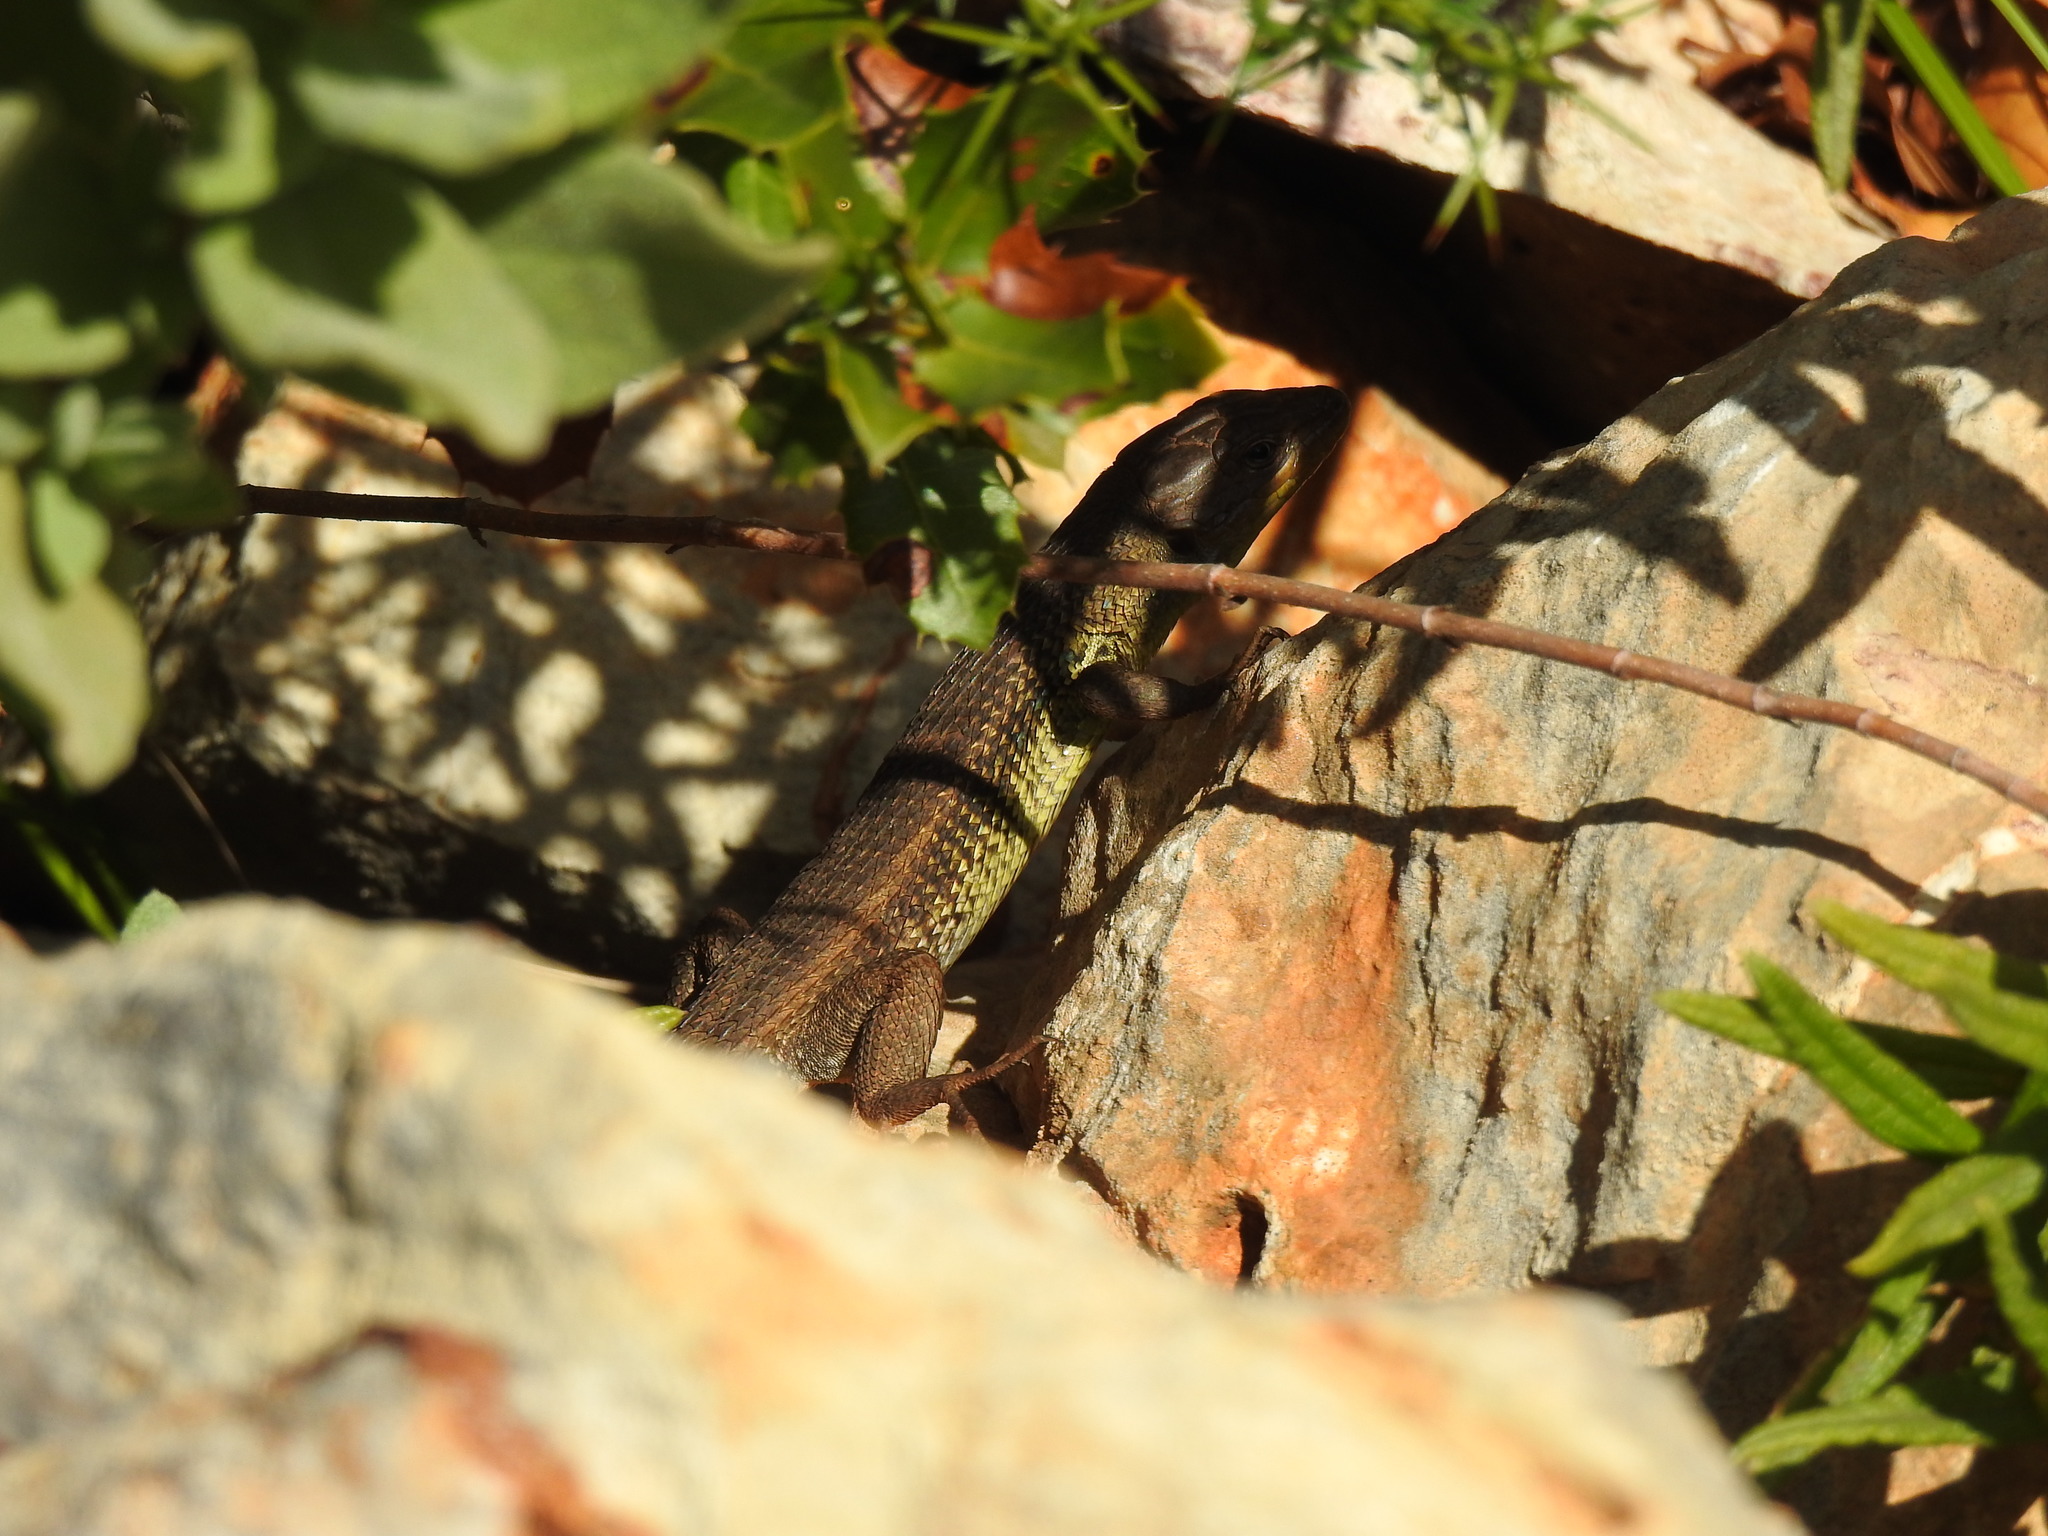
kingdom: Animalia
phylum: Chordata
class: Squamata
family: Lacertidae
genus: Psammodromus
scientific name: Psammodromus algirus
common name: Algerian psammodromus
